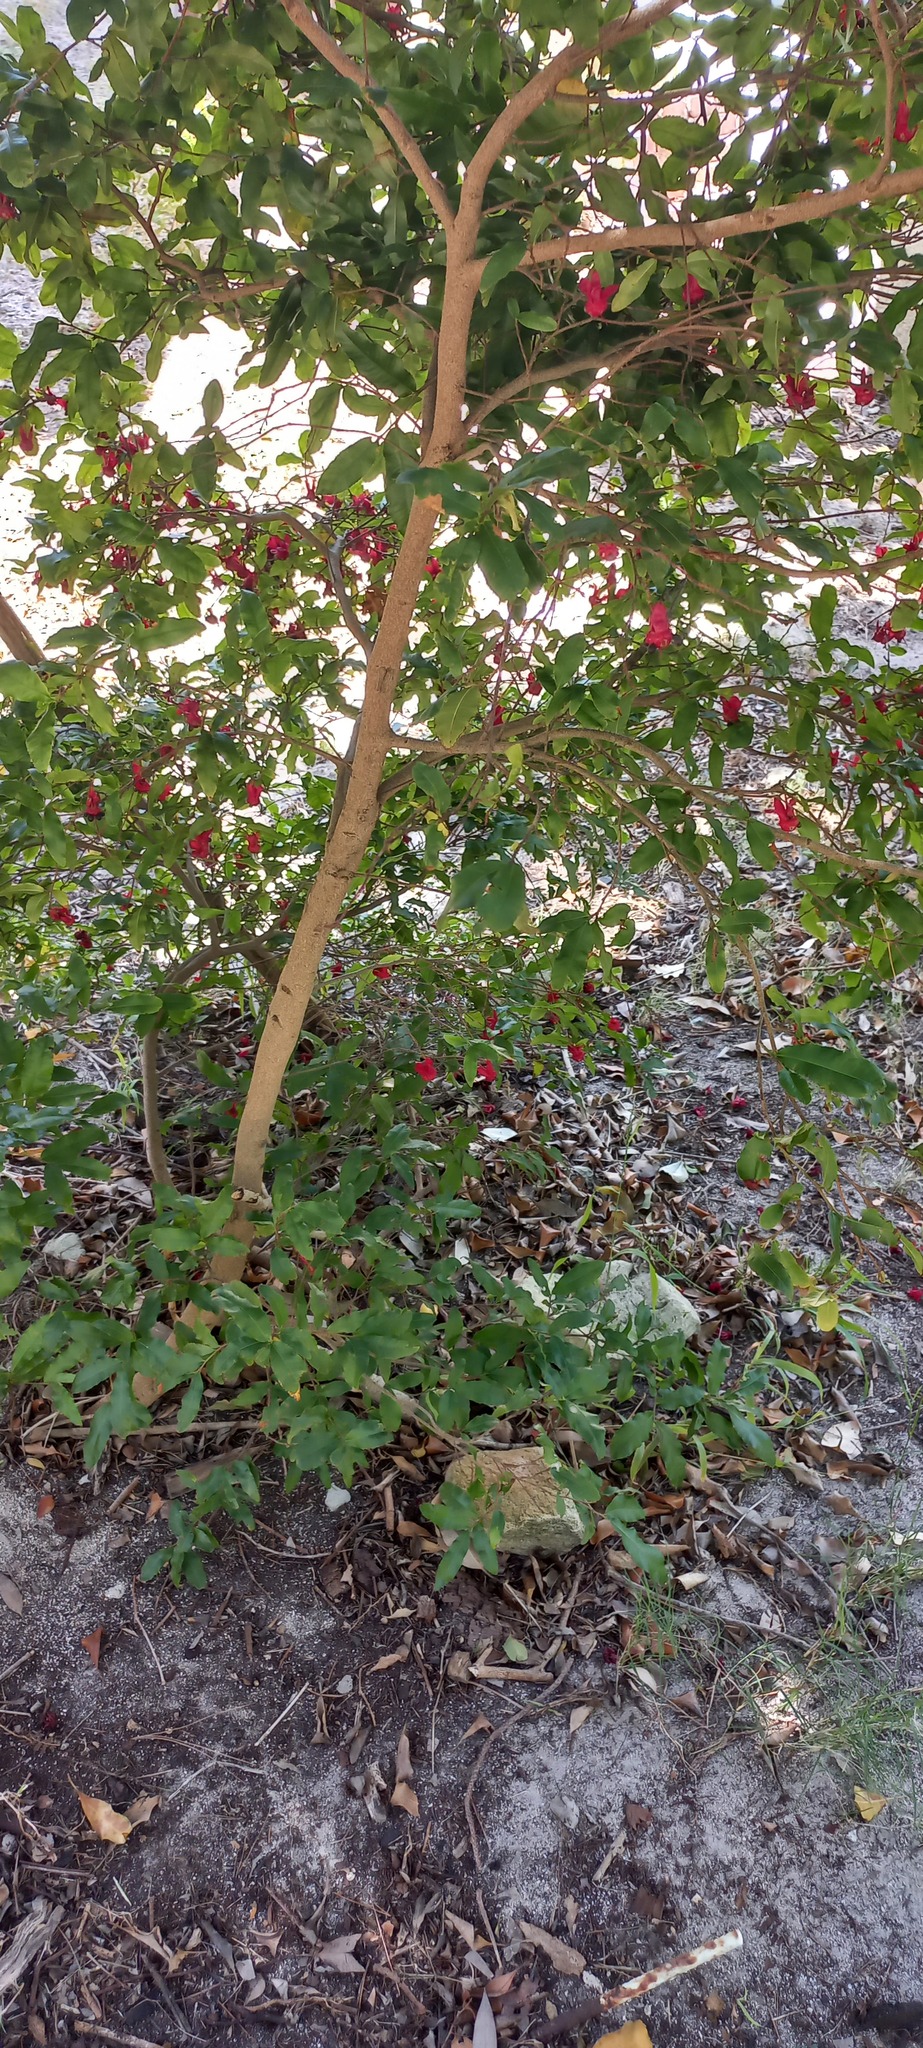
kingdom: Plantae
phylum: Tracheophyta
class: Magnoliopsida
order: Malpighiales
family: Ochnaceae
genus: Ochna
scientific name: Ochna serrulata
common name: Mickey mouse plant
